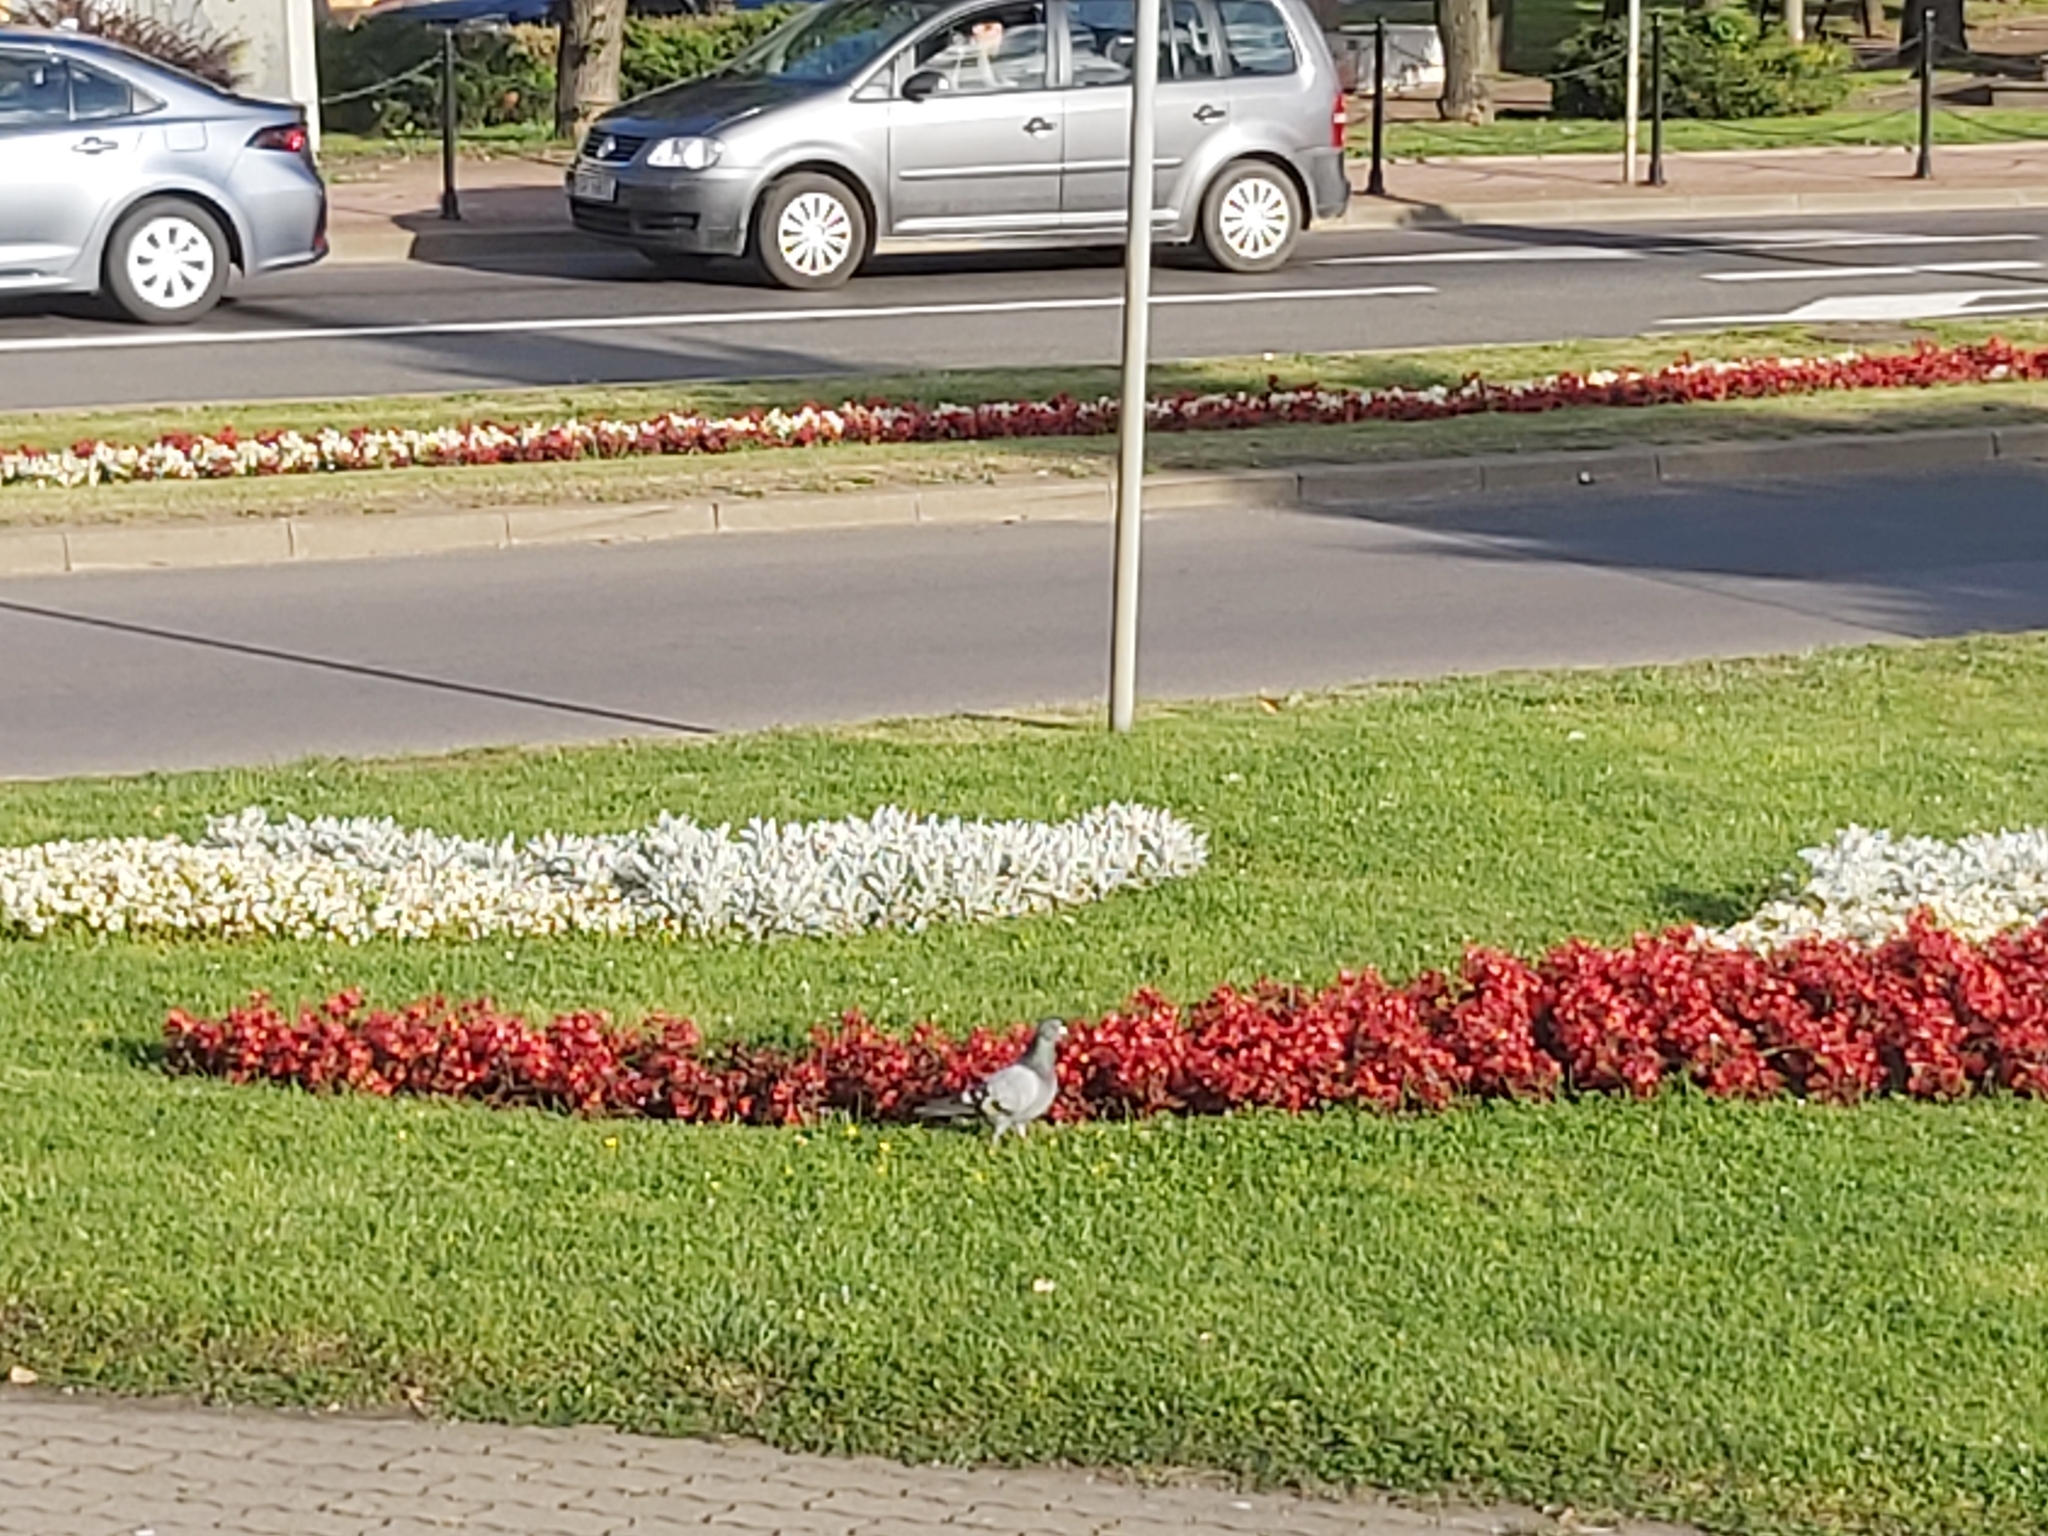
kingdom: Animalia
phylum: Chordata
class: Aves
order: Columbiformes
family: Columbidae
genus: Columba
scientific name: Columba livia
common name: Rock pigeon
